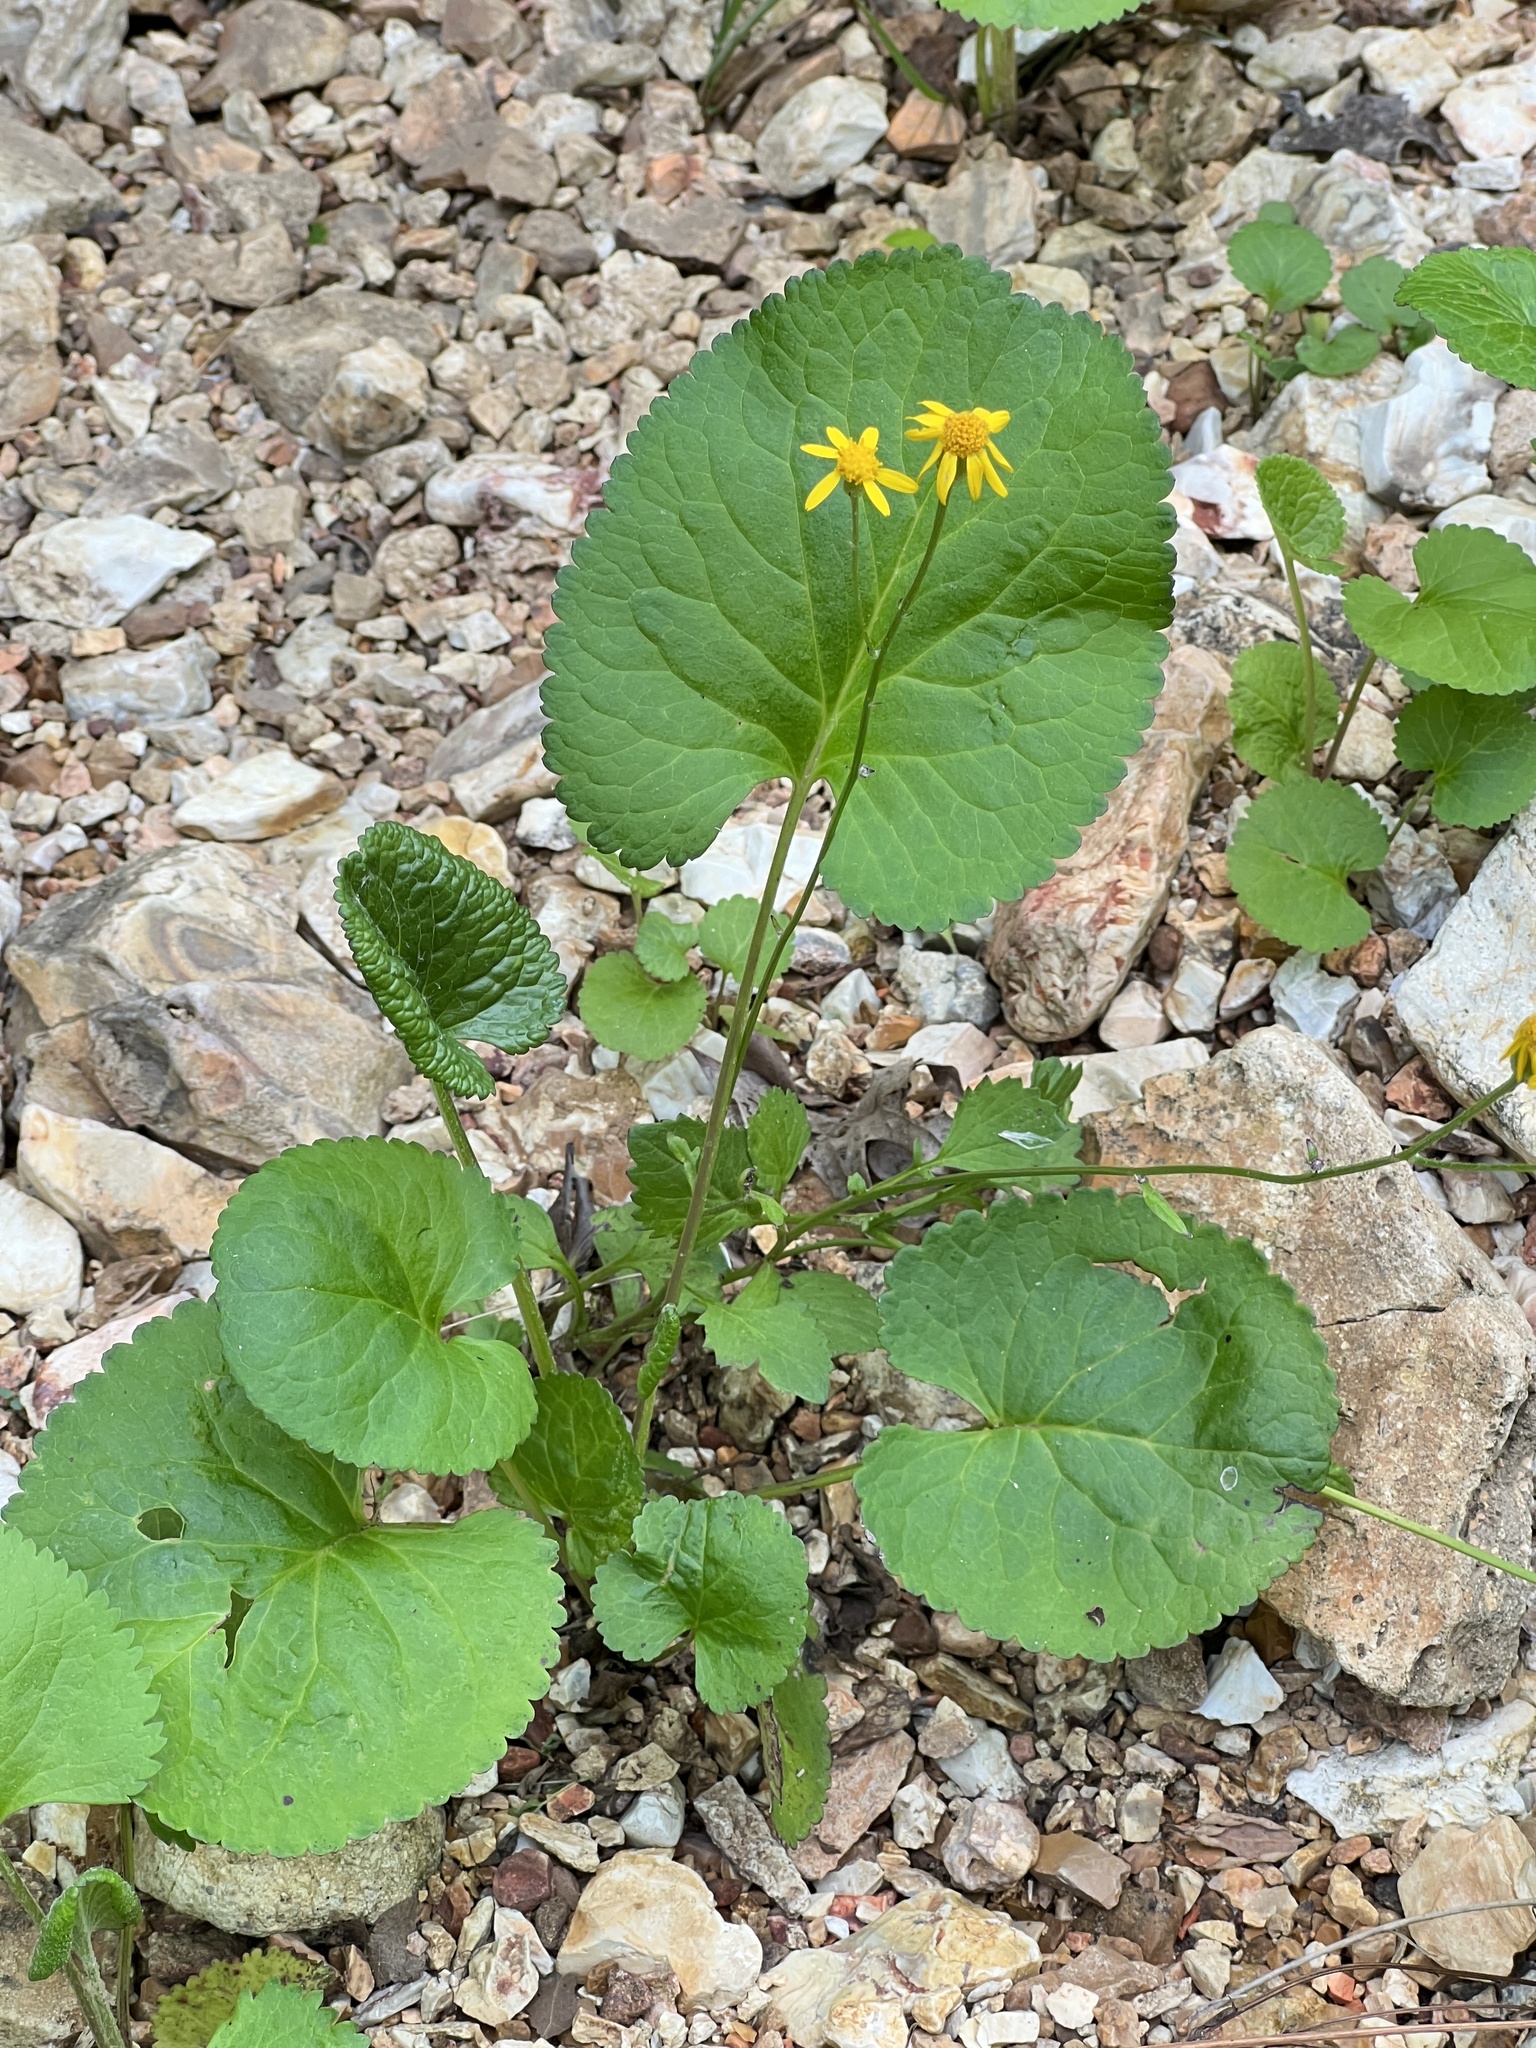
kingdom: Plantae
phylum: Tracheophyta
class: Magnoliopsida
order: Asterales
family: Asteraceae
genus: Packera
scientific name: Packera aurea
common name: Golden groundsel
